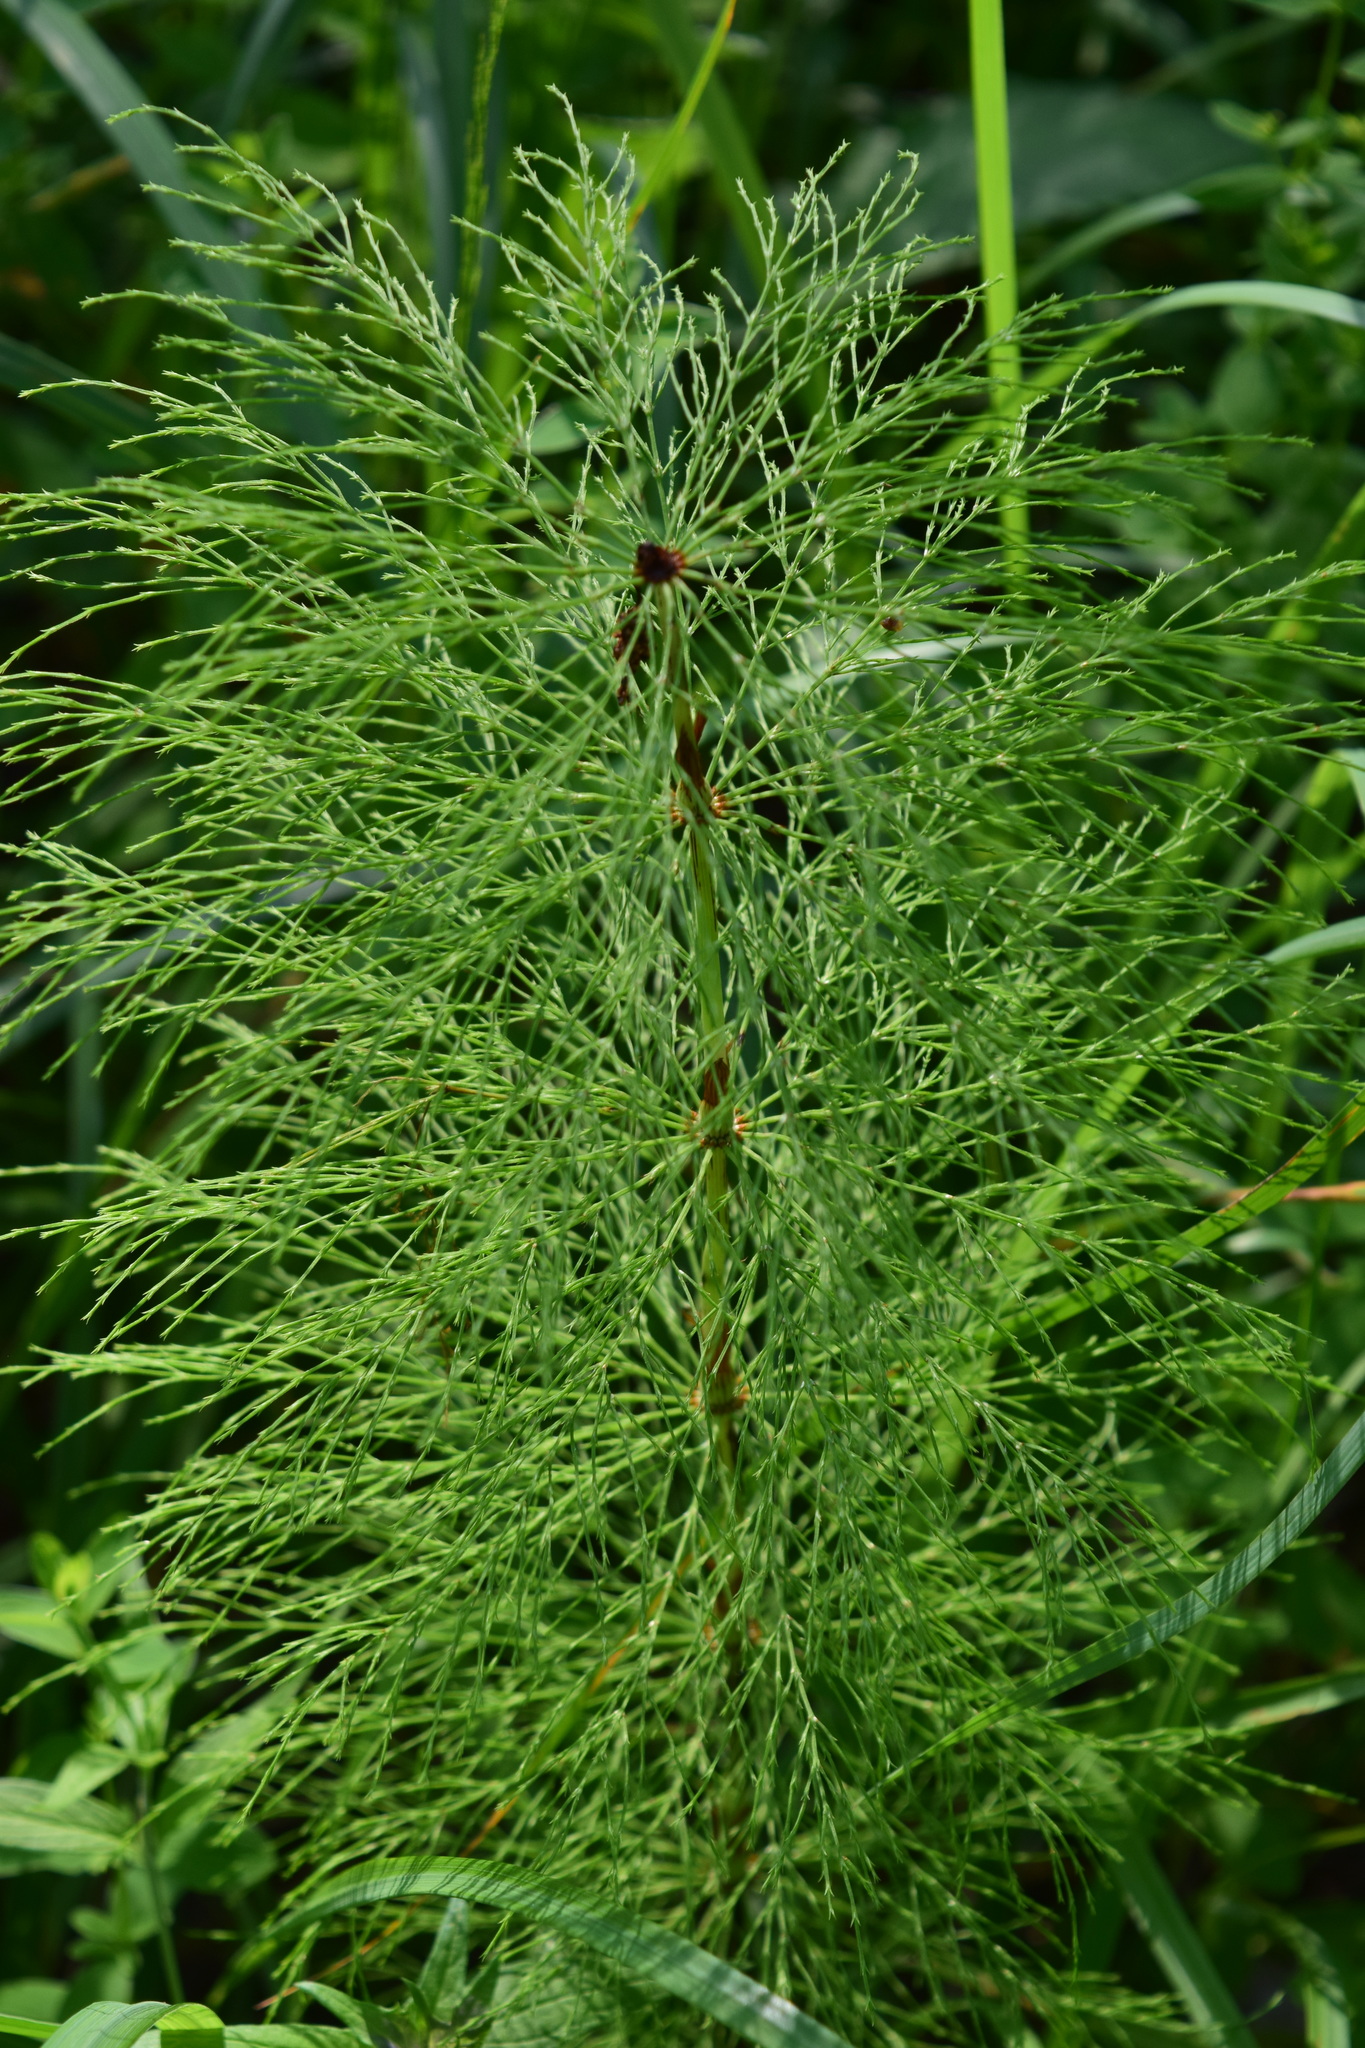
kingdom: Plantae
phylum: Tracheophyta
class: Polypodiopsida
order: Equisetales
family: Equisetaceae
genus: Equisetum
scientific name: Equisetum sylvaticum
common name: Wood horsetail
